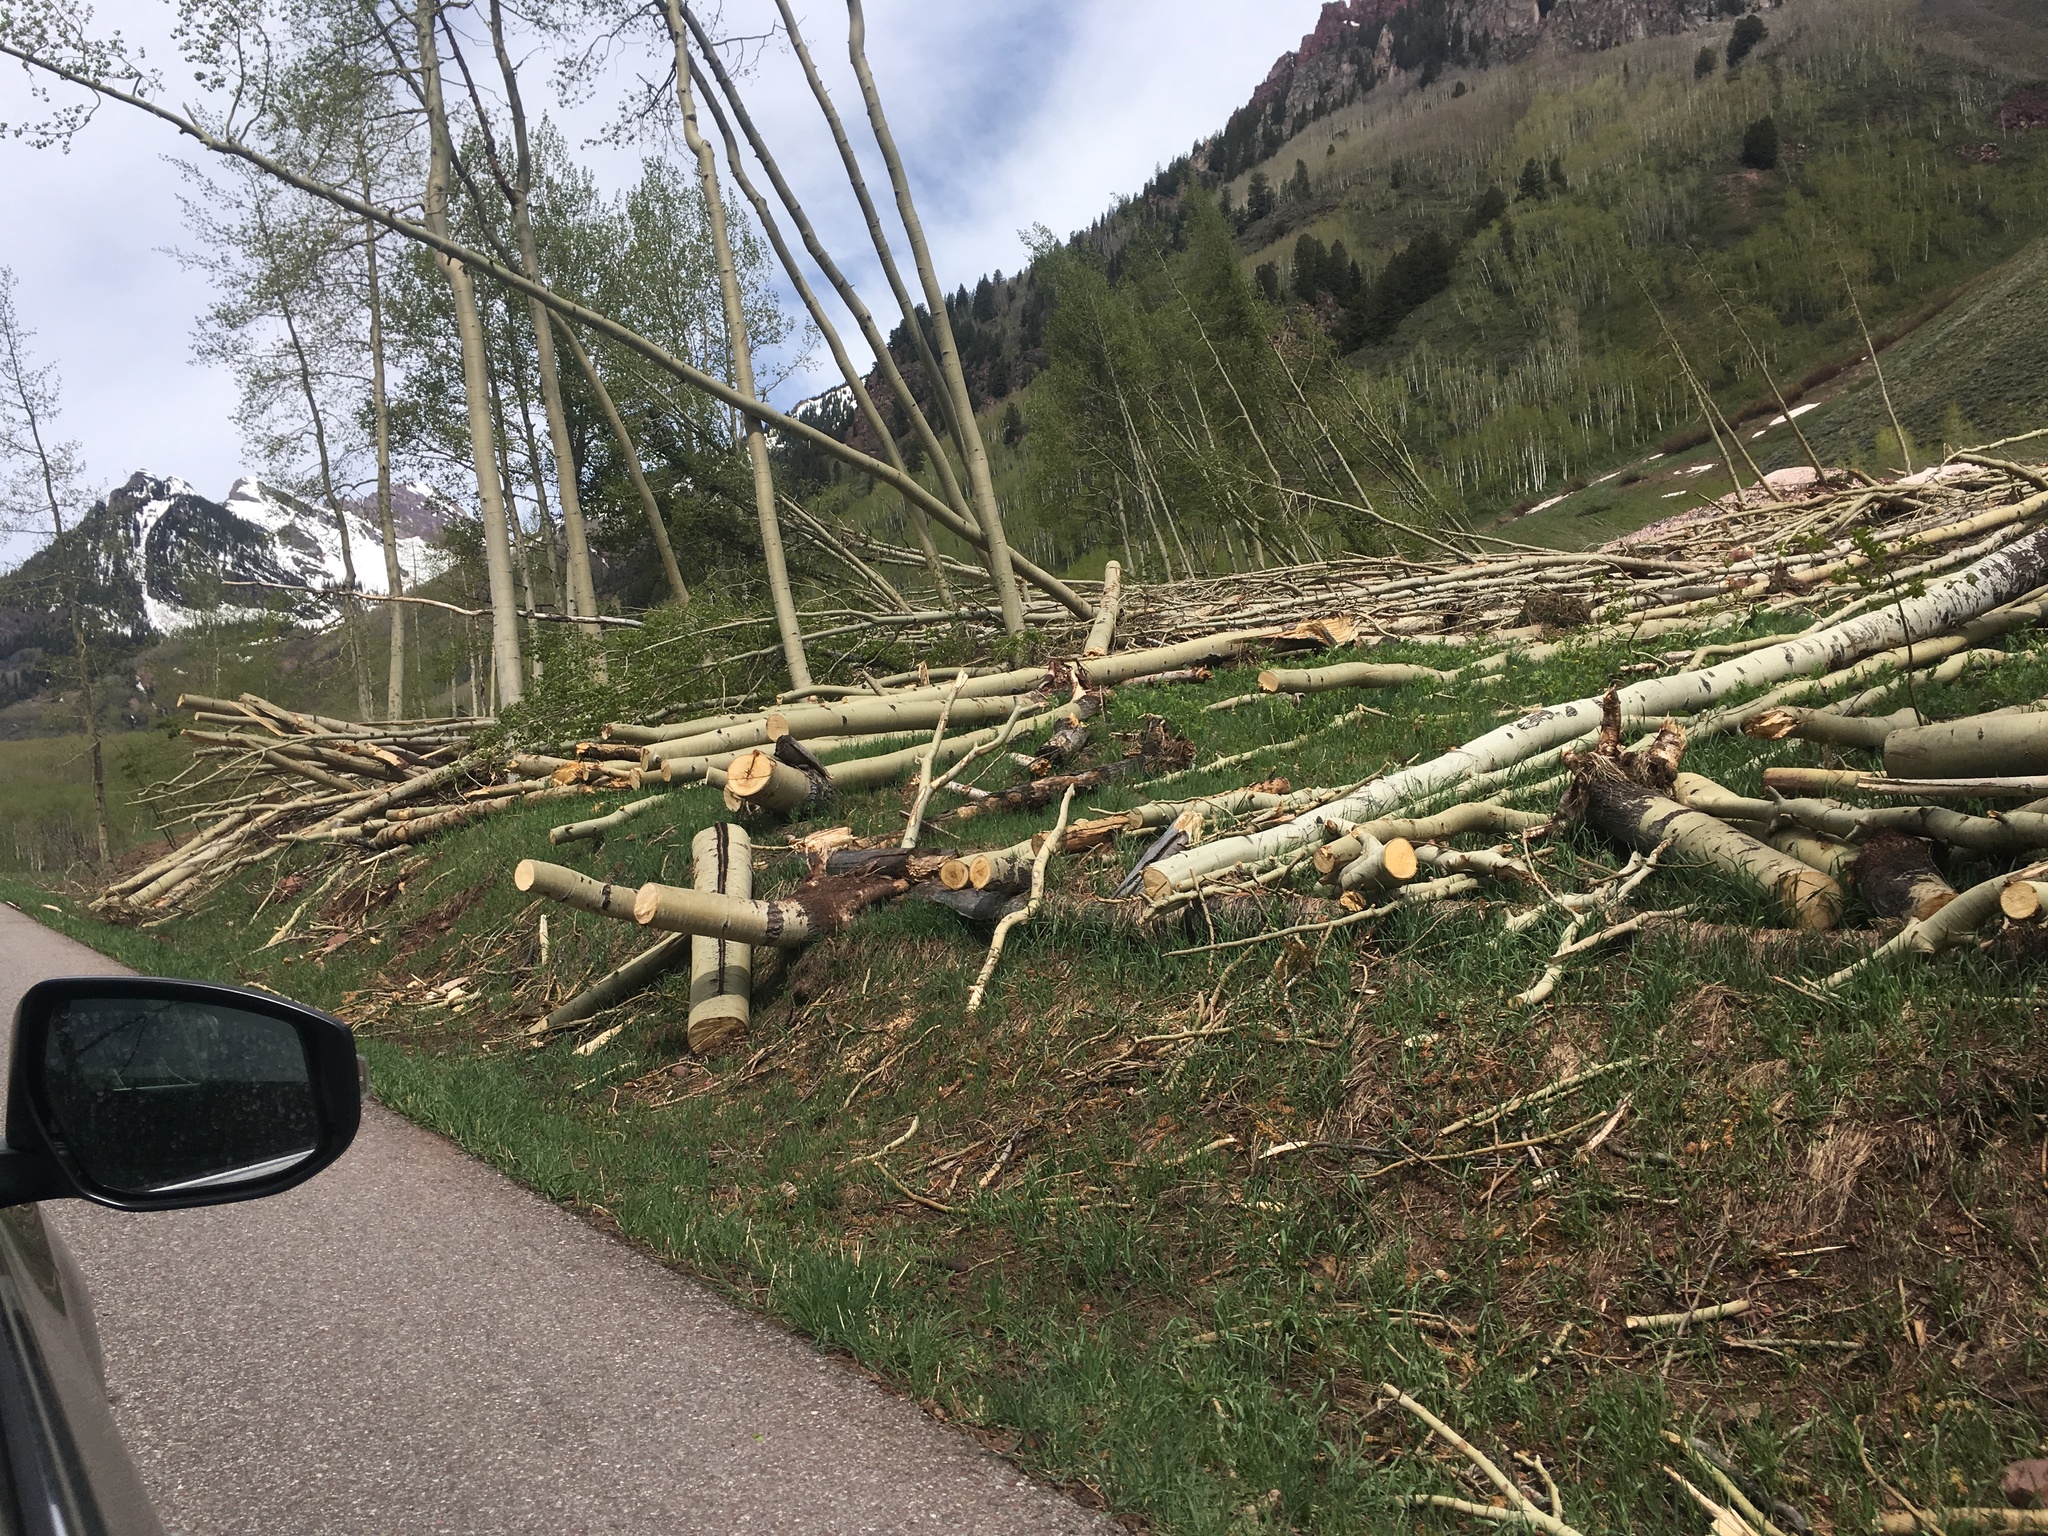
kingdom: Plantae
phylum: Tracheophyta
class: Magnoliopsida
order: Malpighiales
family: Salicaceae
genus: Populus
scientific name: Populus tremuloides
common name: Quaking aspen
